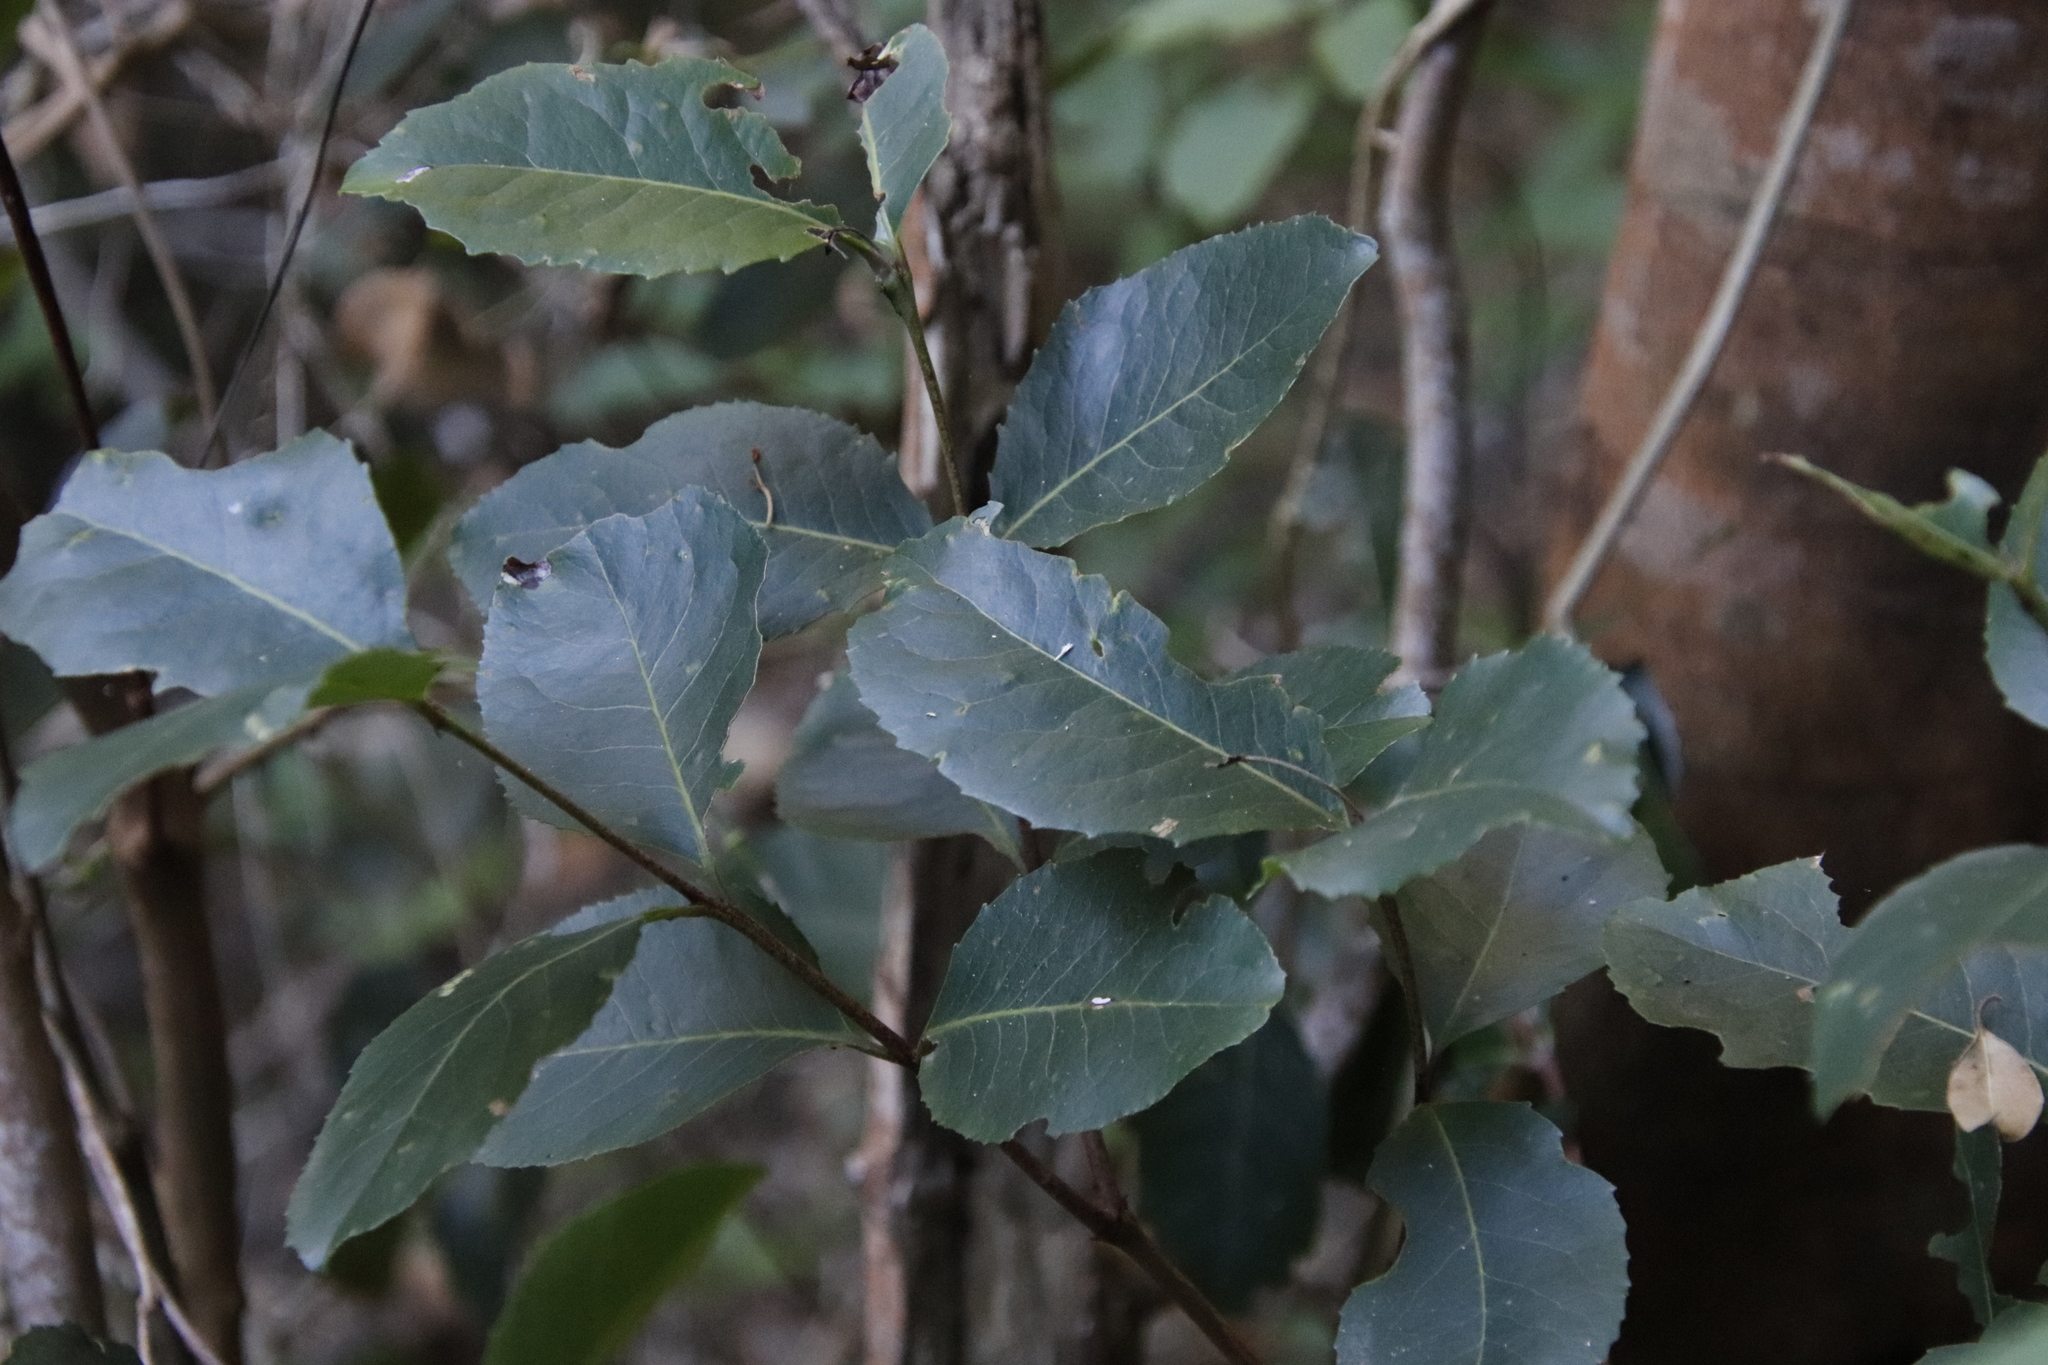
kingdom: Plantae
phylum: Tracheophyta
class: Magnoliopsida
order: Celastrales
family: Celastraceae
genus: Cassine
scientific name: Cassine peragua
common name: Cape saffron
